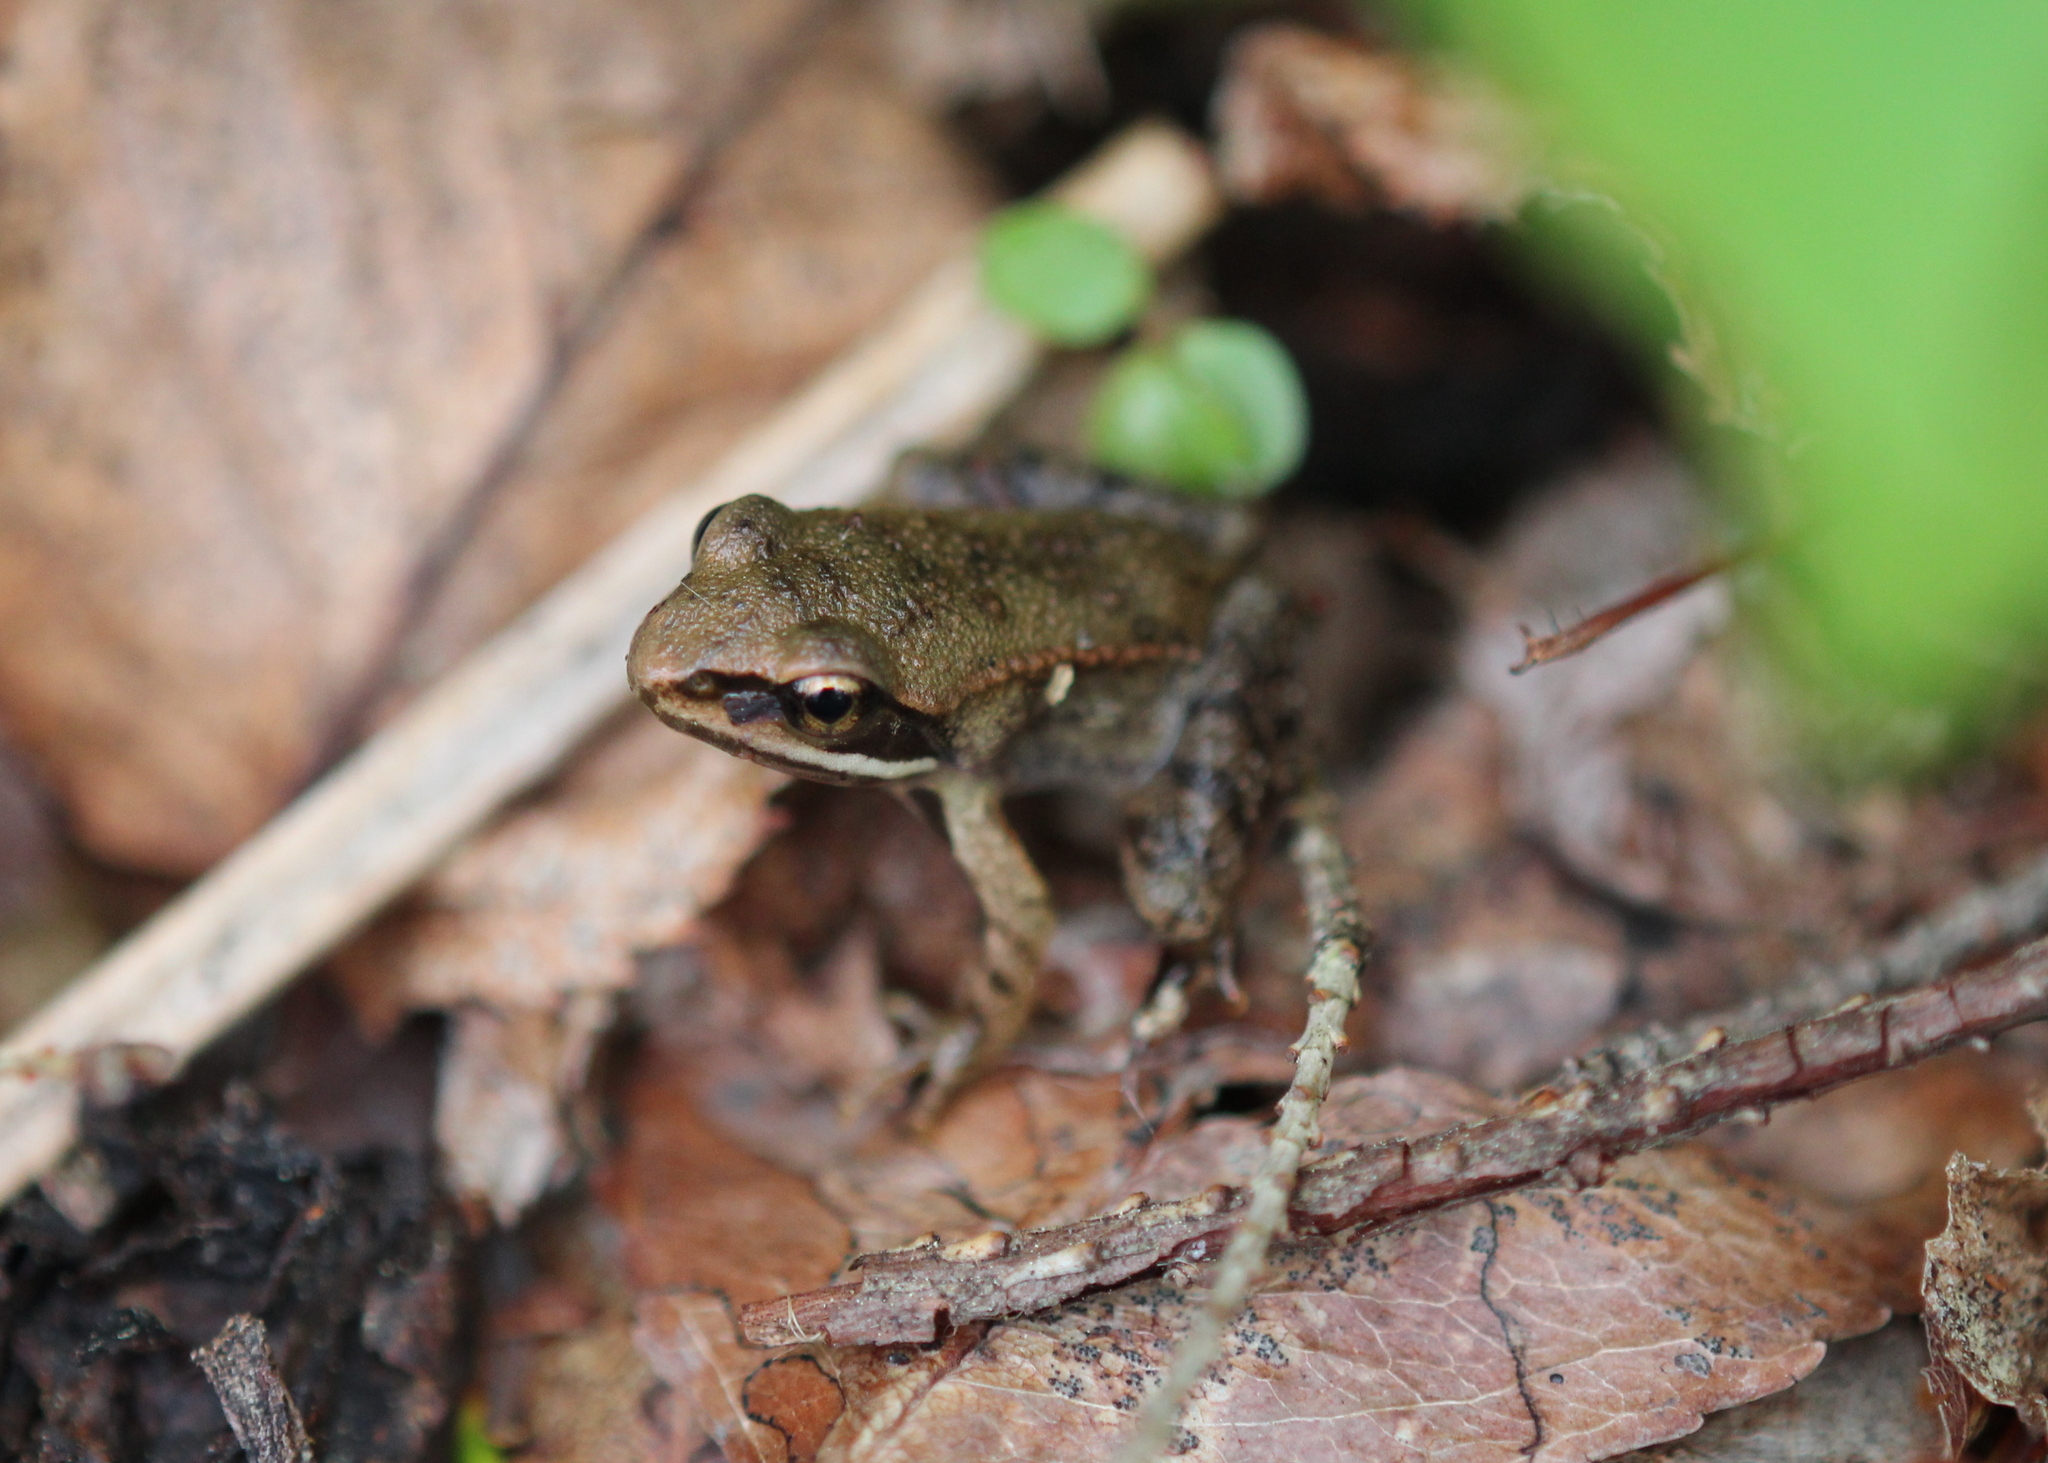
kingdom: Animalia
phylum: Chordata
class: Amphibia
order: Anura
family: Ranidae
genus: Lithobates
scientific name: Lithobates sylvaticus
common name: Wood frog
